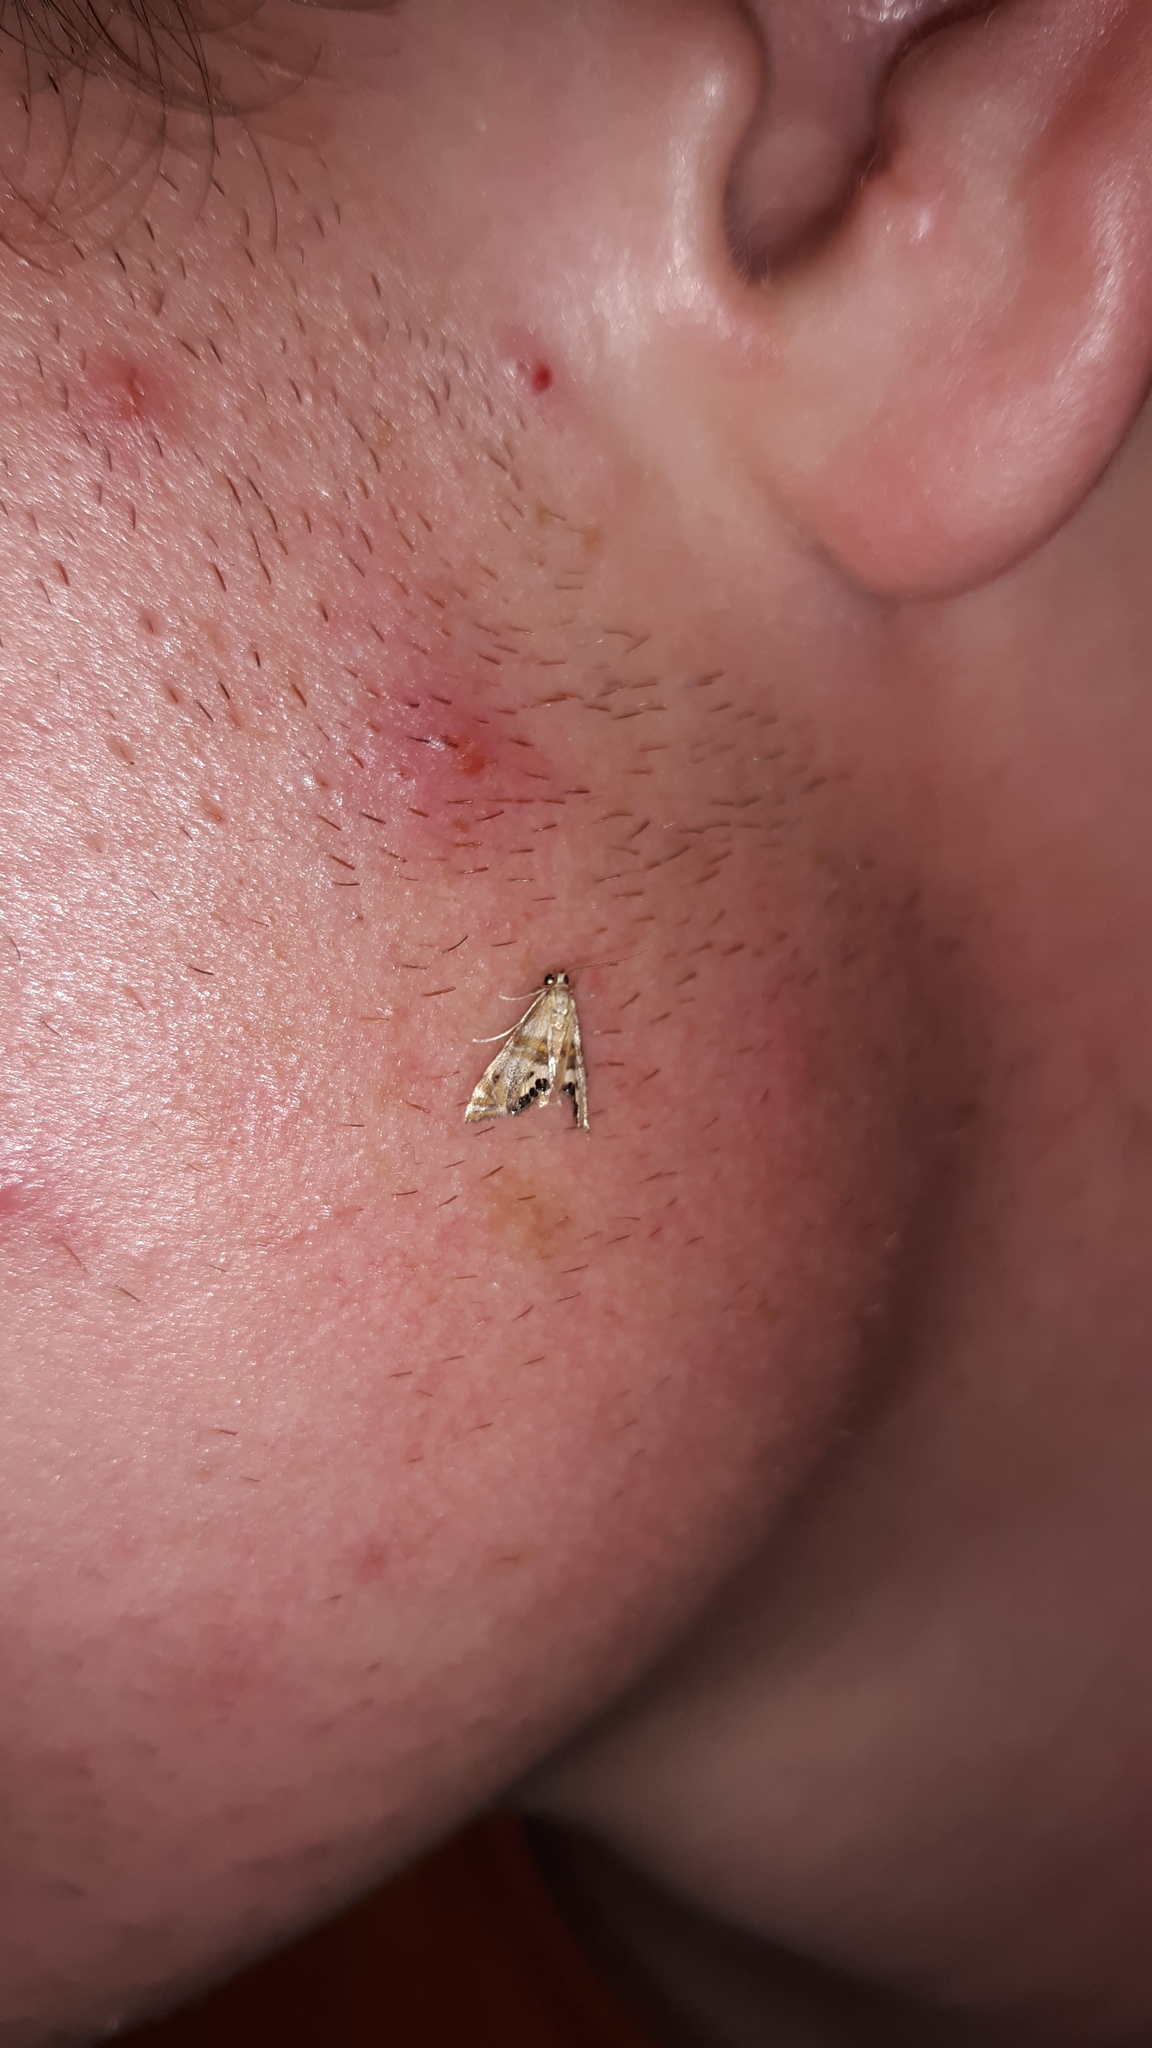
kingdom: Animalia
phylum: Arthropoda
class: Insecta
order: Lepidoptera
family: Crambidae
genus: Petrophila
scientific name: Petrophila bifascialis
